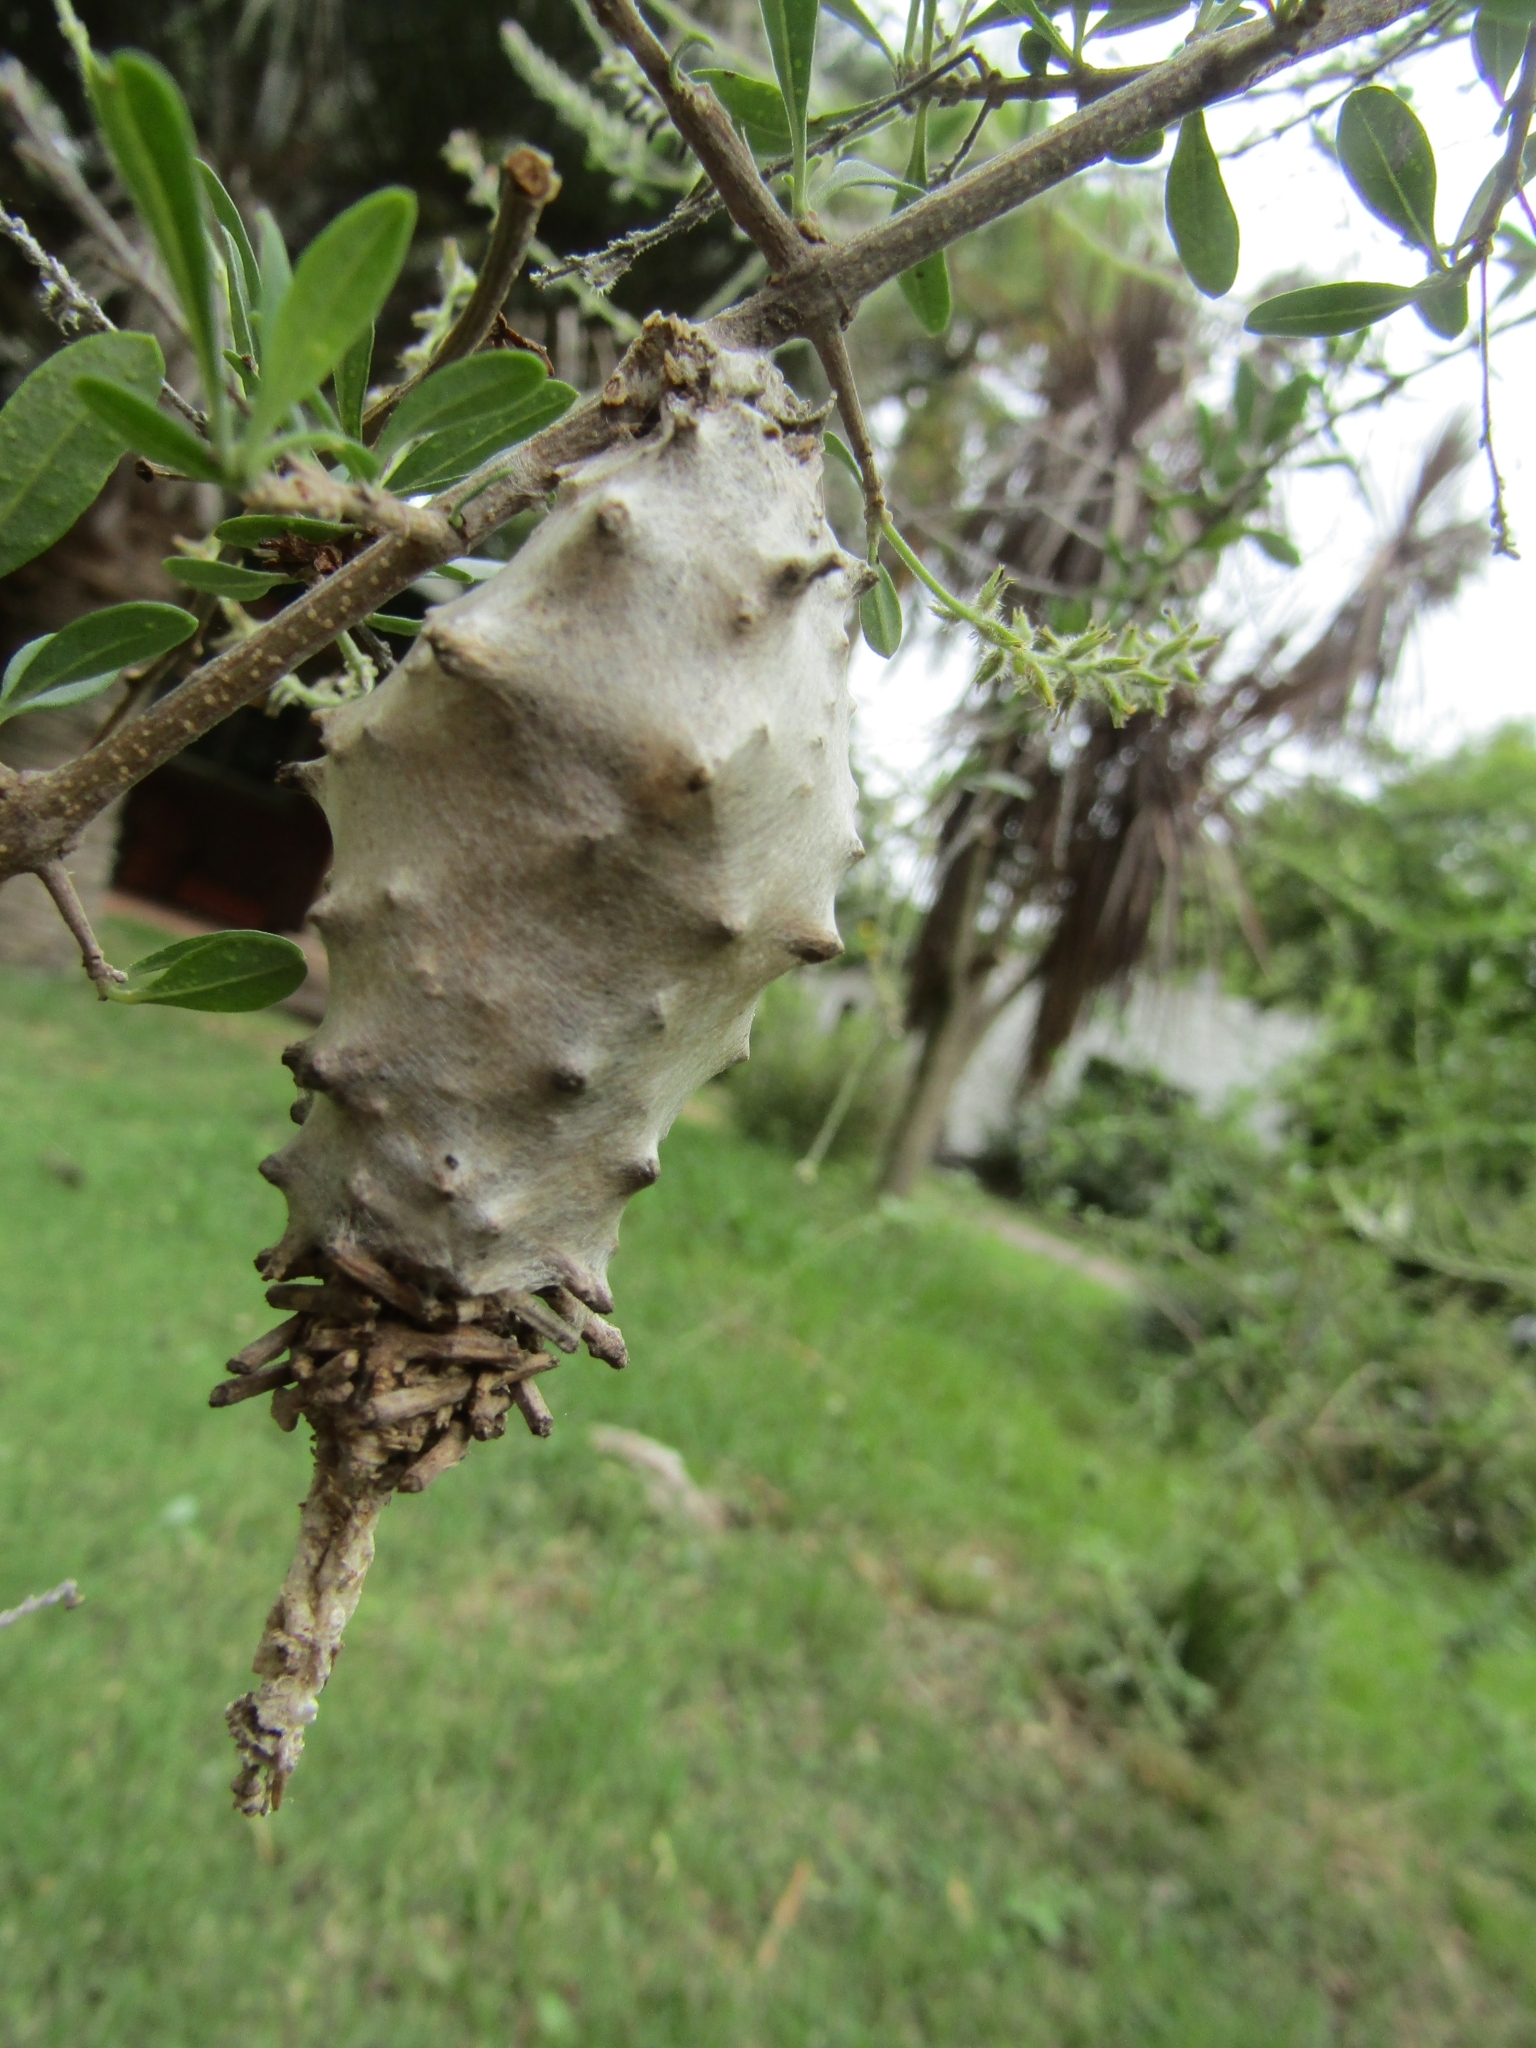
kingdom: Animalia
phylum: Arthropoda
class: Insecta
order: Lepidoptera
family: Psychidae
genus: Oiketicus
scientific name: Oiketicus
